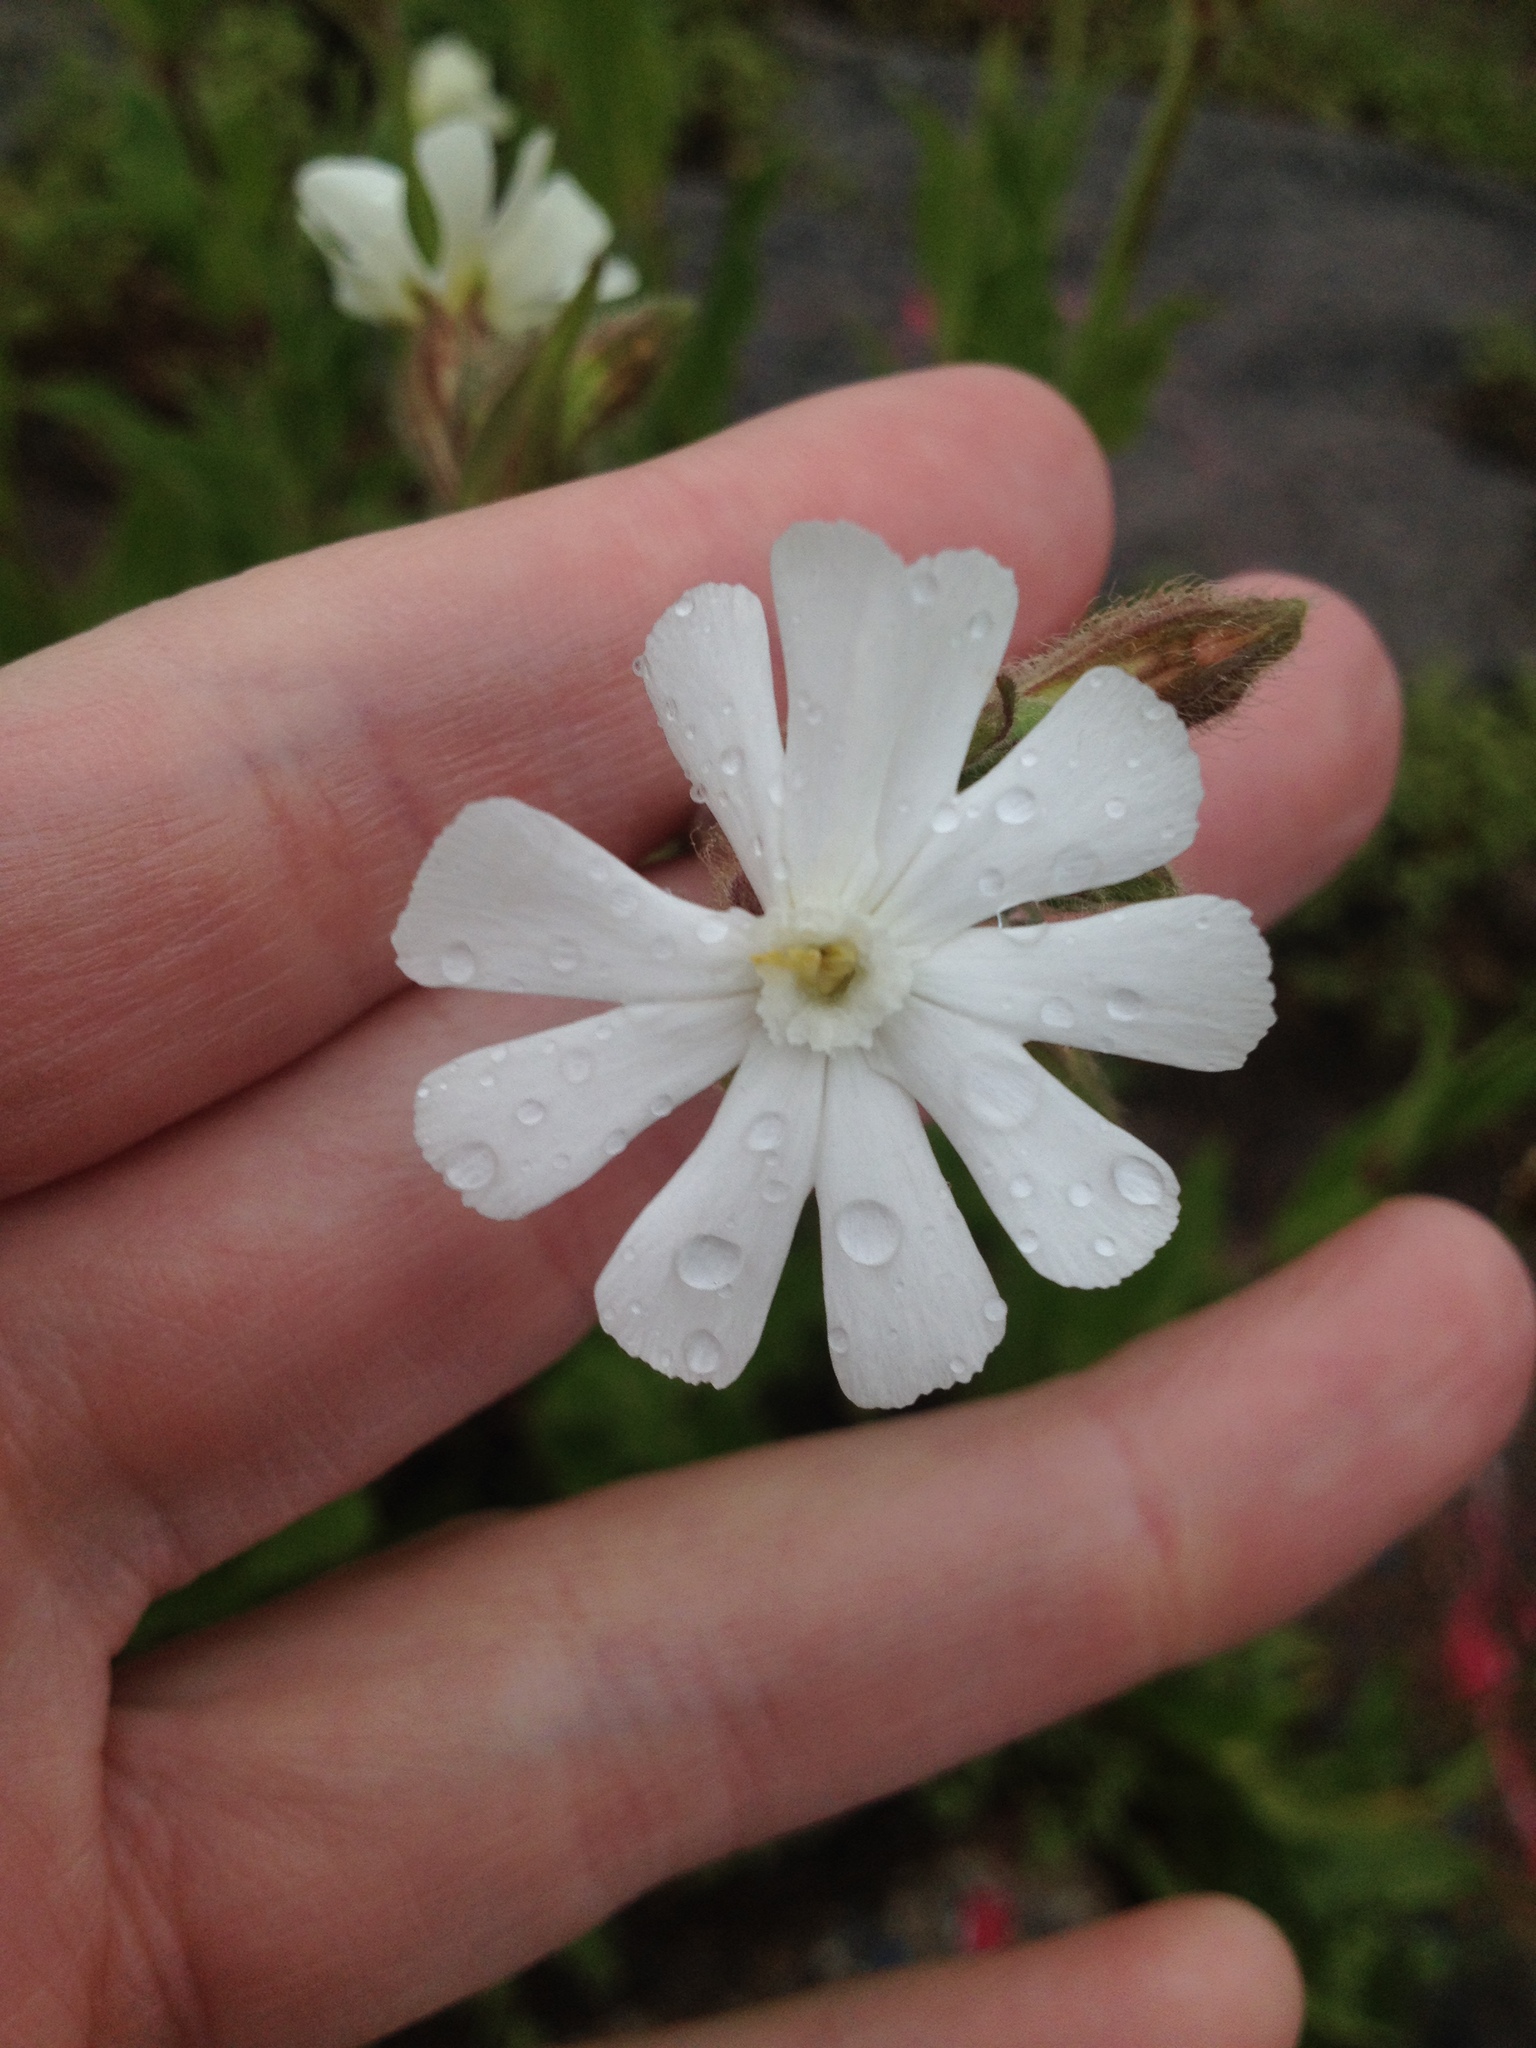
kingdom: Plantae
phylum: Tracheophyta
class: Magnoliopsida
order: Caryophyllales
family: Caryophyllaceae
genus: Silene
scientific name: Silene latifolia
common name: White campion
